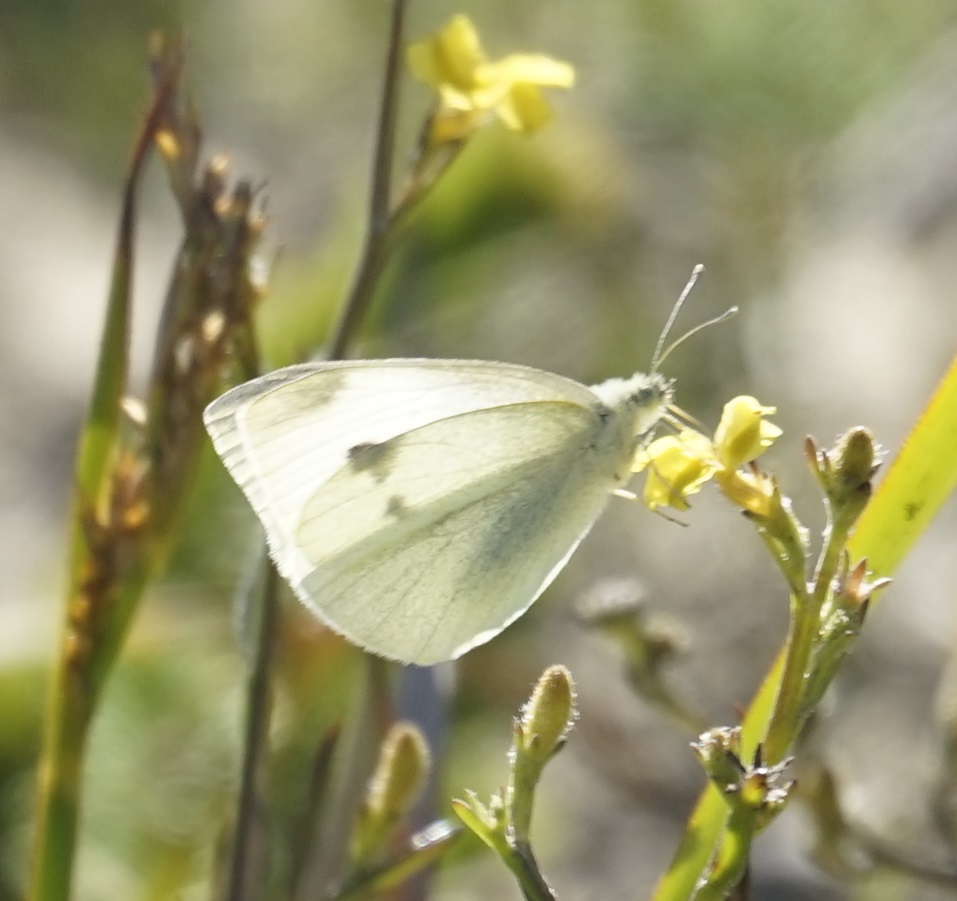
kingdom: Animalia
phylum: Arthropoda
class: Insecta
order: Lepidoptera
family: Pieridae
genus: Pieris
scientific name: Pieris rapae
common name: Small white
